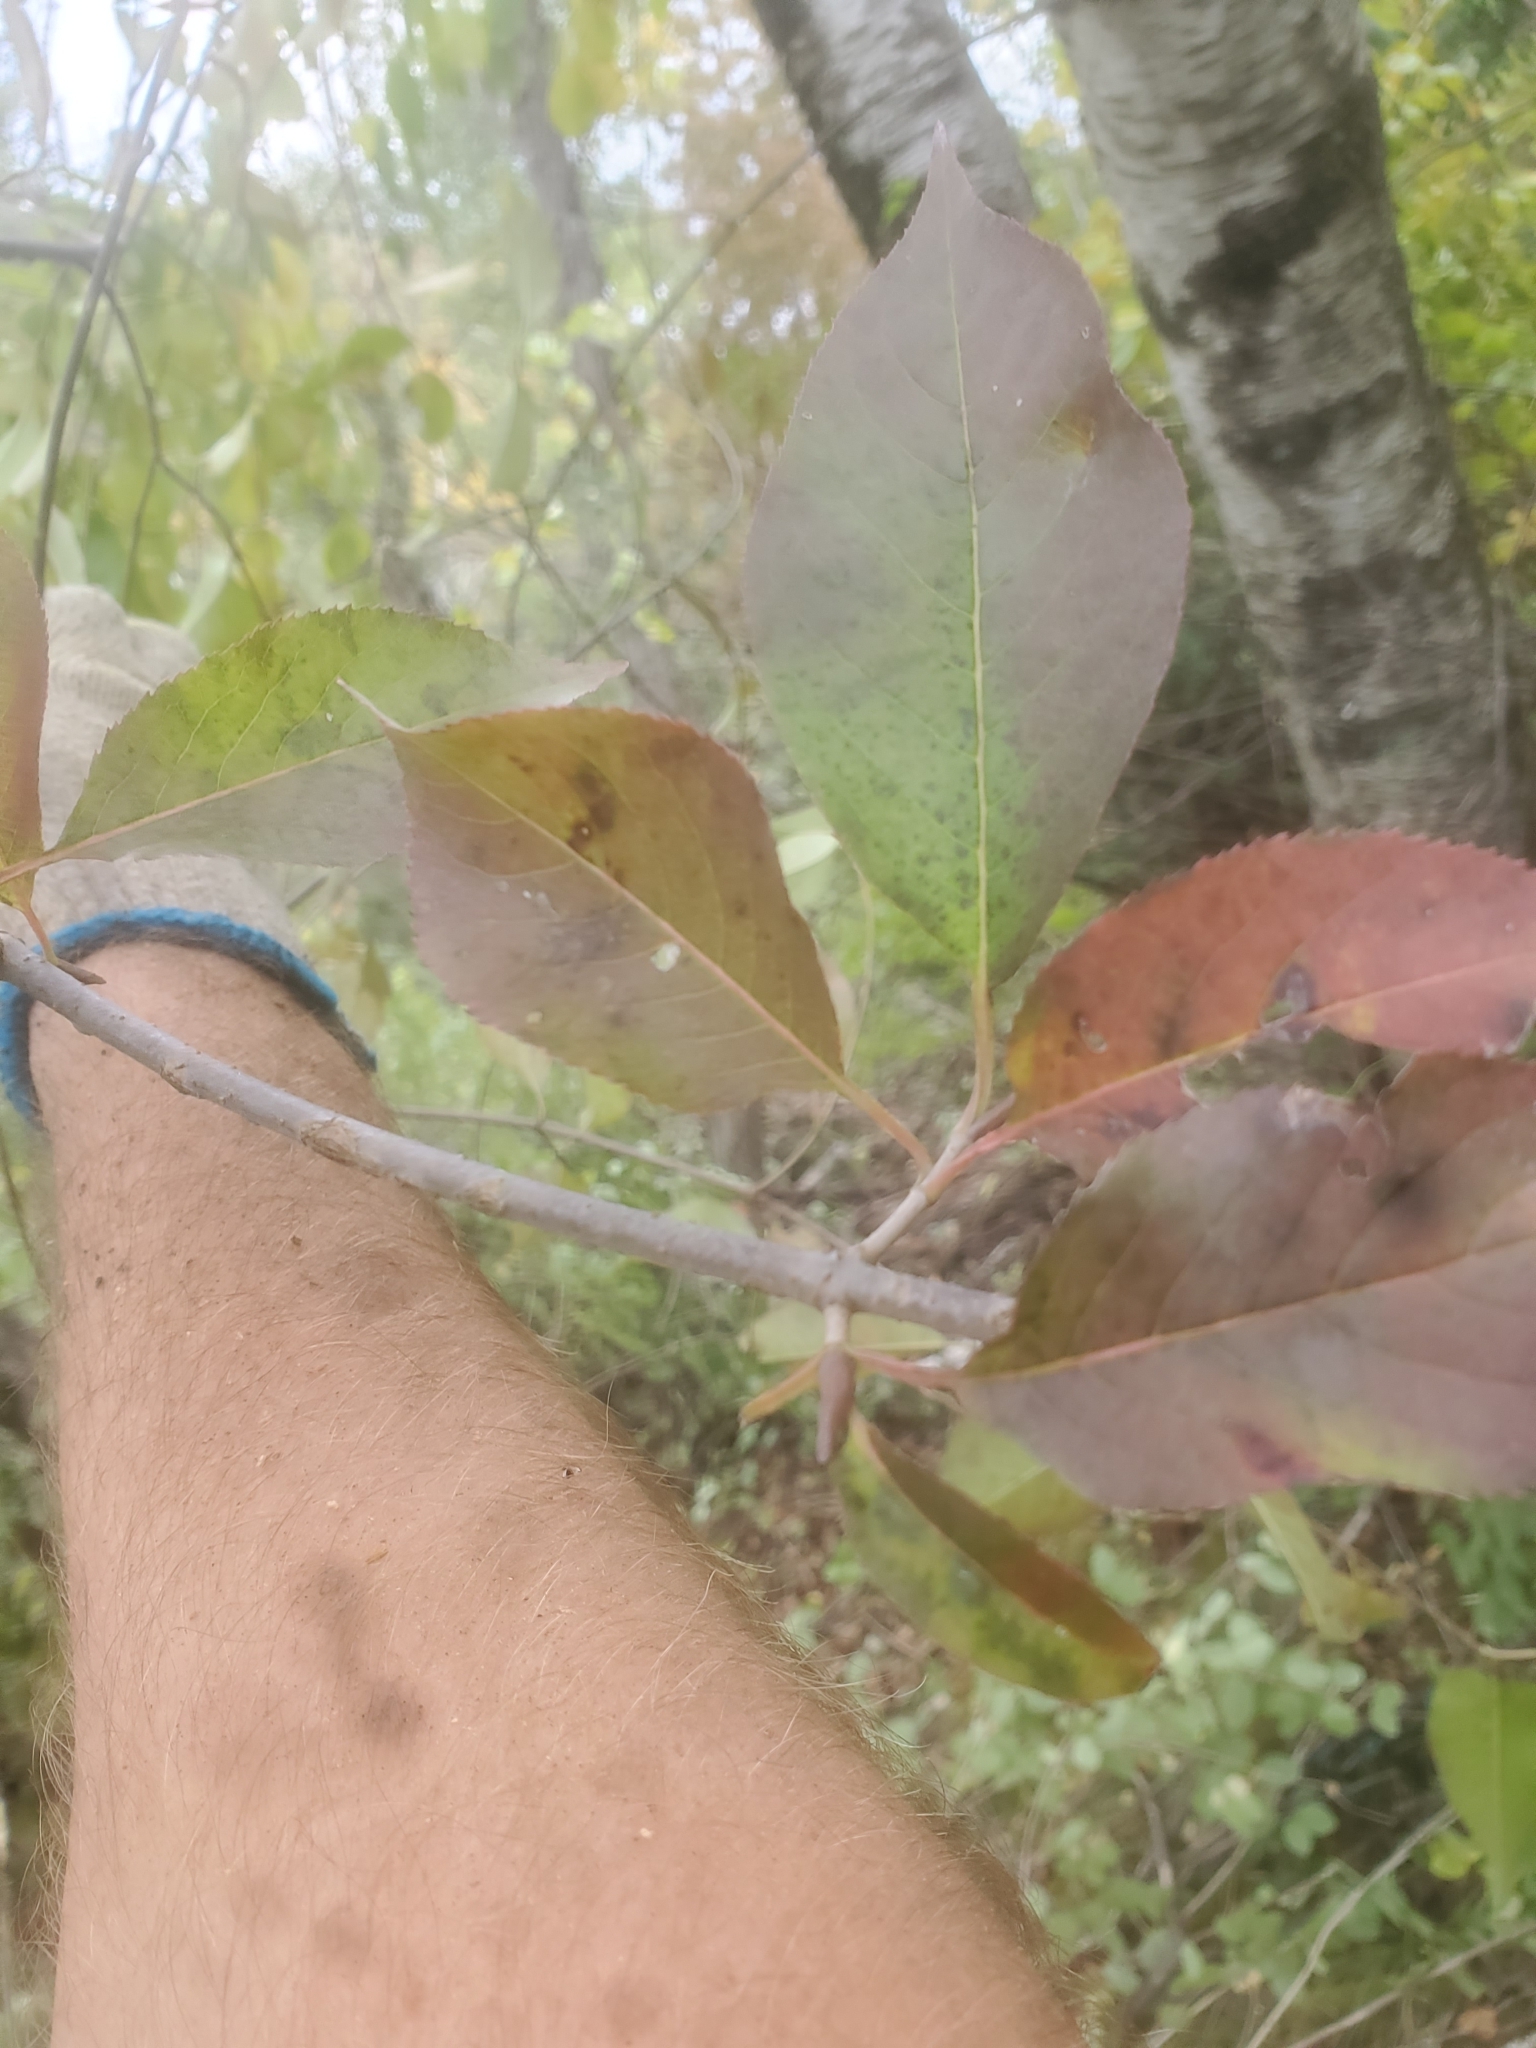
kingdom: Plantae
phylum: Tracheophyta
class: Magnoliopsida
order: Dipsacales
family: Viburnaceae
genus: Viburnum
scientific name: Viburnum lentago
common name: Black haw
